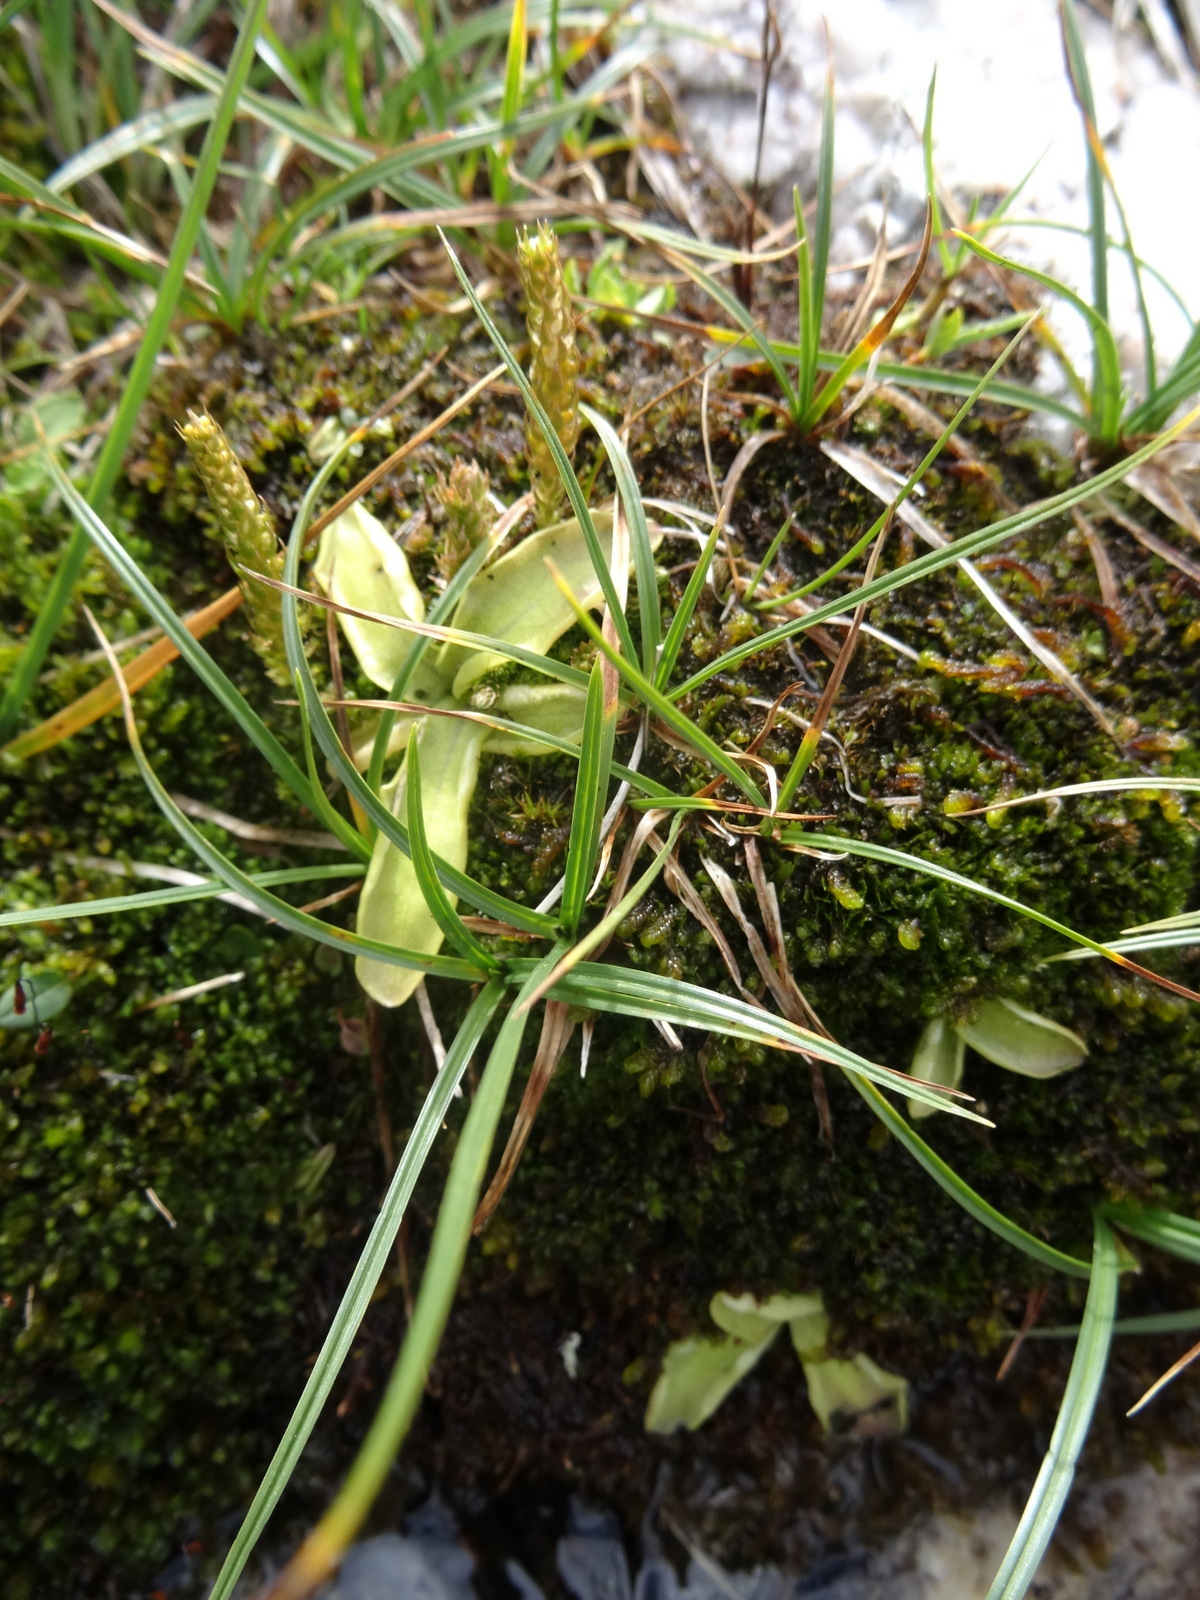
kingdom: Plantae
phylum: Tracheophyta
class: Magnoliopsida
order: Lamiales
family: Lentibulariaceae
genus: Pinguicula
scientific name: Pinguicula vulgaris
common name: Common butterwort
